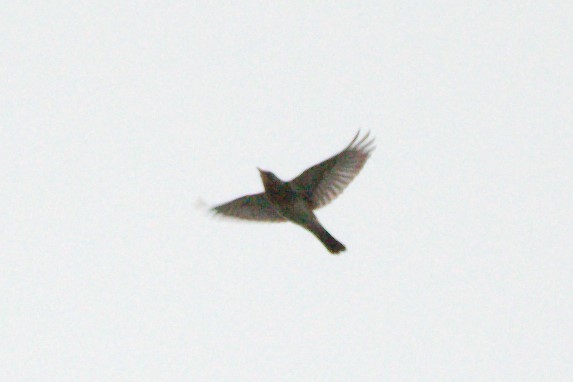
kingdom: Animalia
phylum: Chordata
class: Aves
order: Passeriformes
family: Turdidae
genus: Turdus
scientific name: Turdus pilaris
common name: Fieldfare
